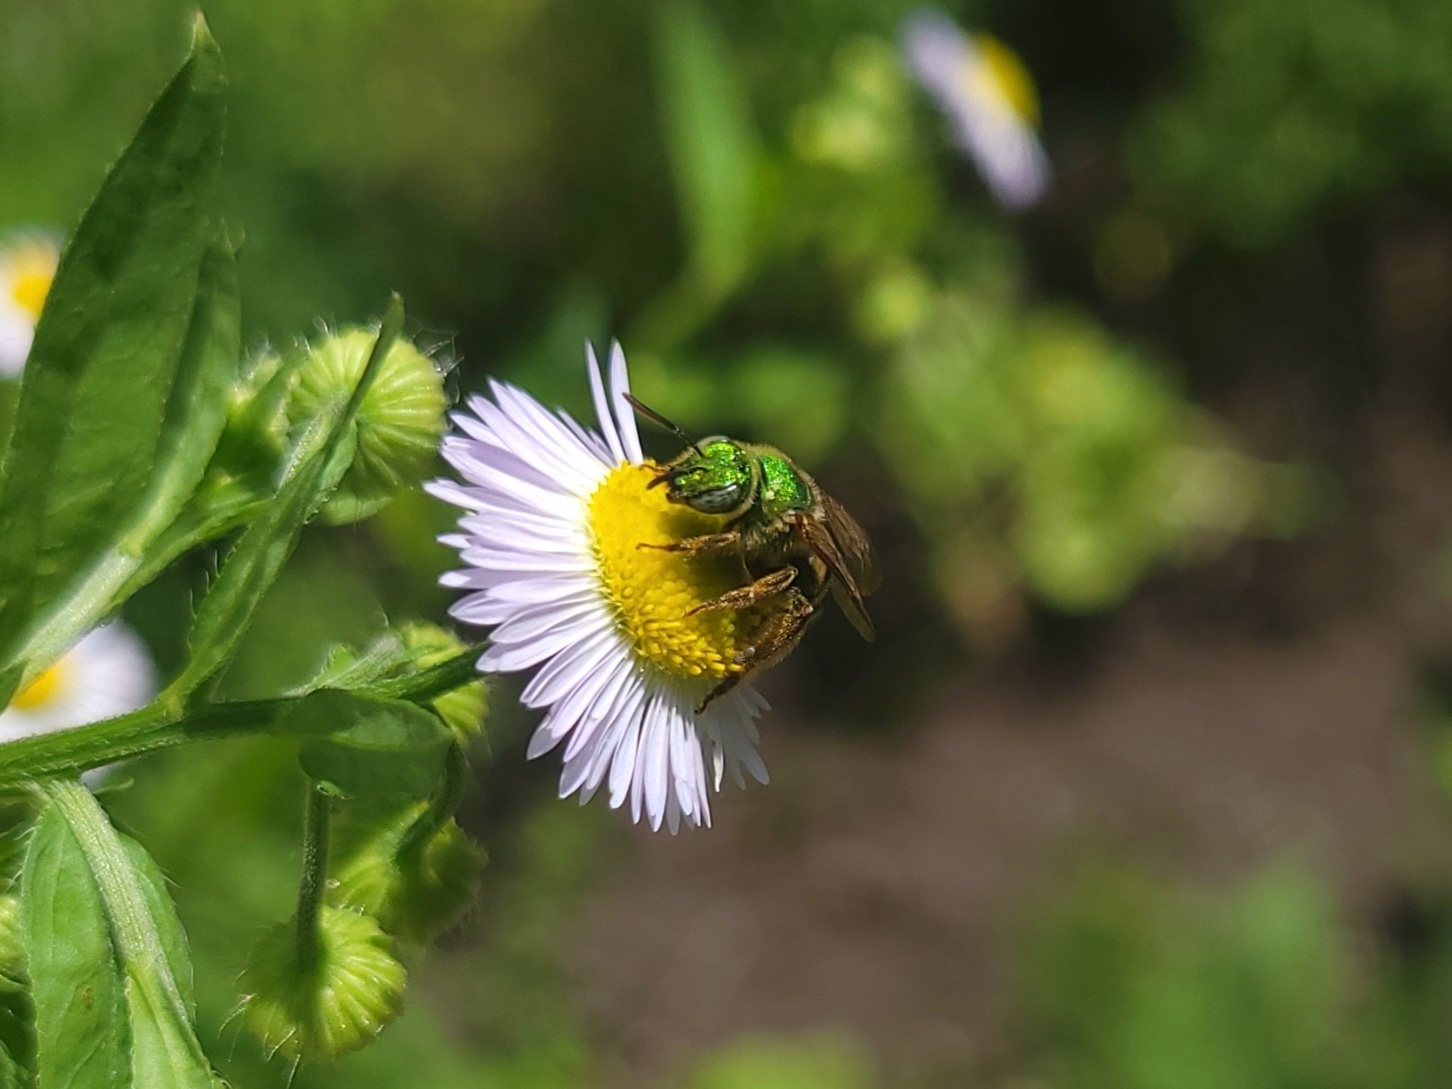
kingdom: Animalia
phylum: Arthropoda
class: Insecta
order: Hymenoptera
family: Halictidae
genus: Agapostemon
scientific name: Agapostemon virescens
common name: Bicolored striped sweat bee
